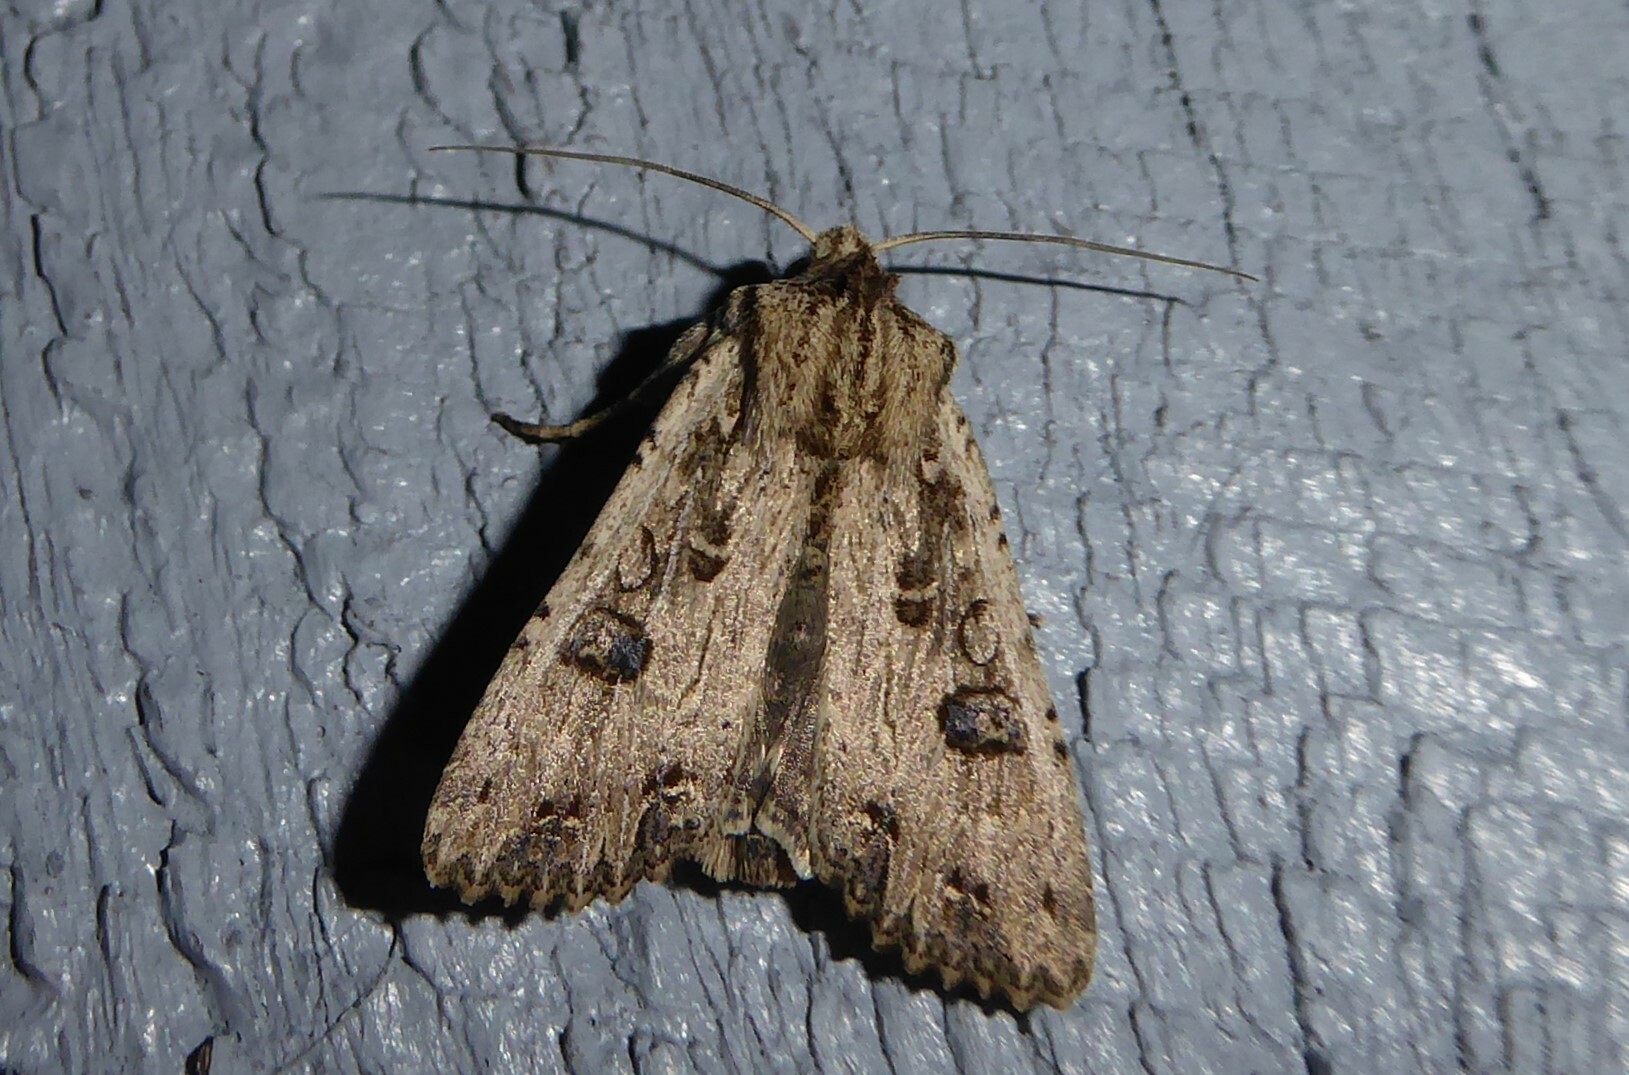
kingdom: Animalia
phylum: Arthropoda
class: Insecta
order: Lepidoptera
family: Noctuidae
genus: Ichneutica
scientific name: Ichneutica lignana
